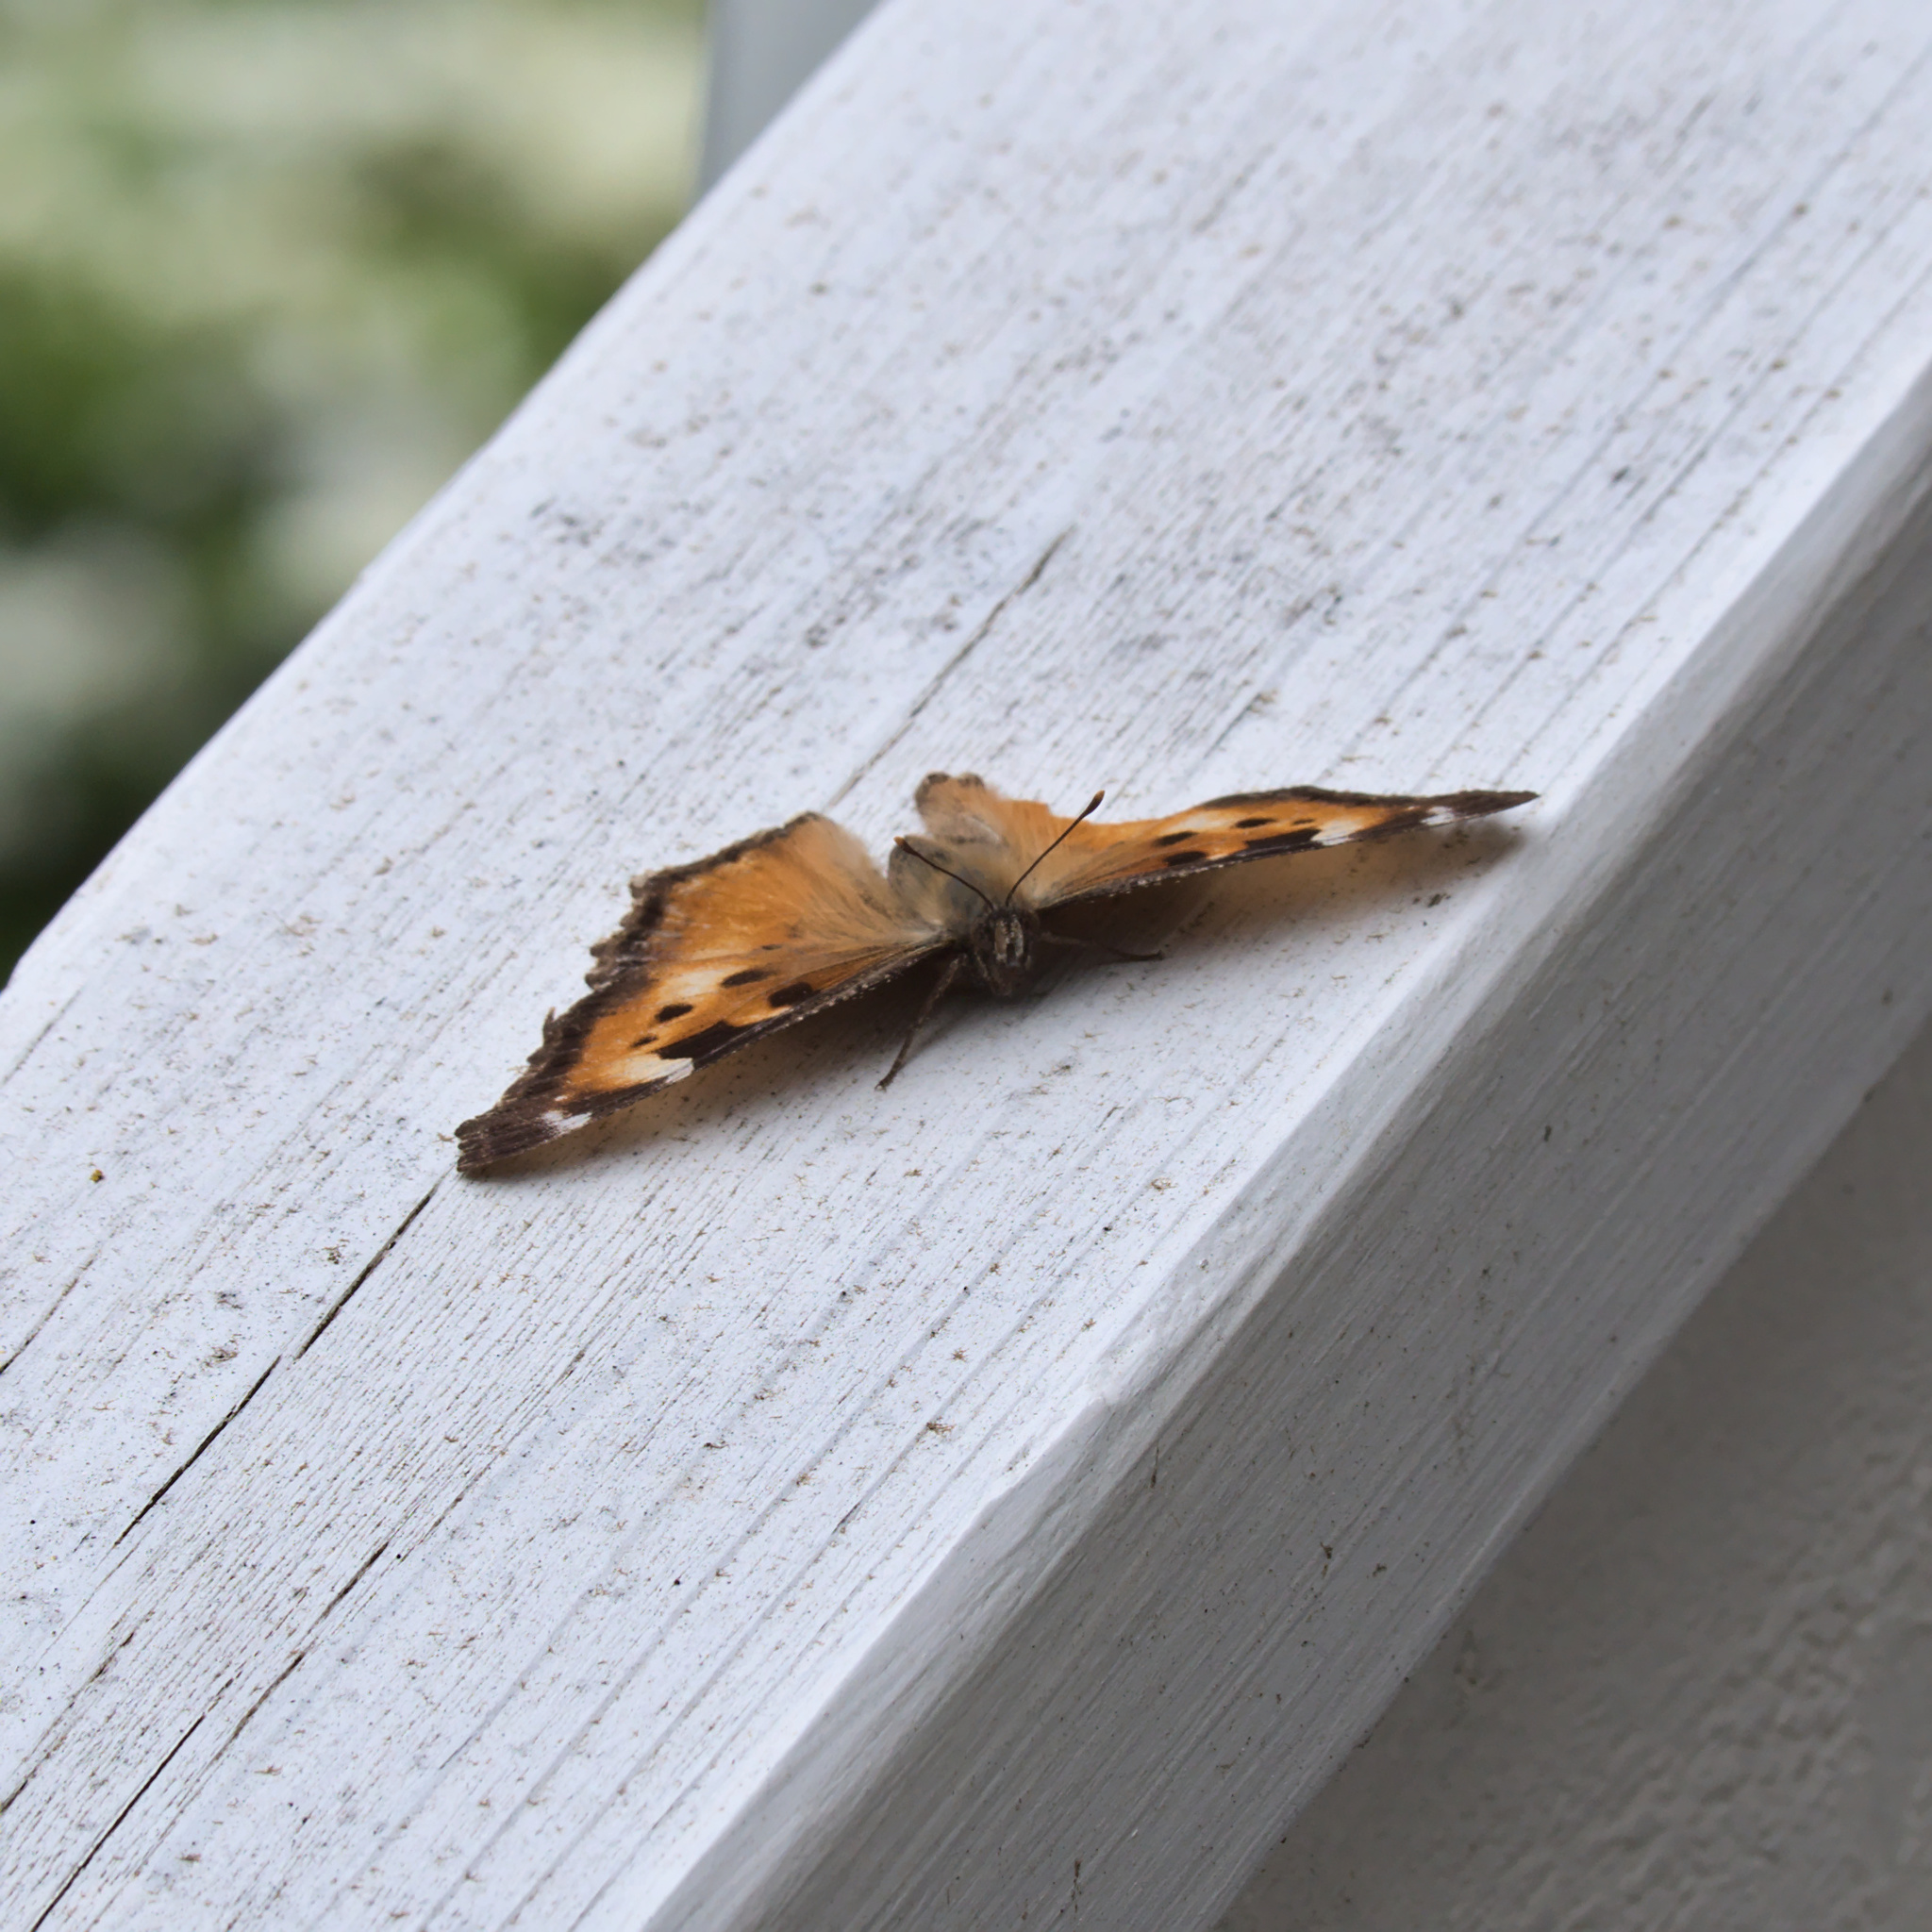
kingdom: Animalia
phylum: Arthropoda
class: Insecta
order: Lepidoptera
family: Nymphalidae
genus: Nymphalis
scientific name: Nymphalis californica
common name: California tortoiseshell
